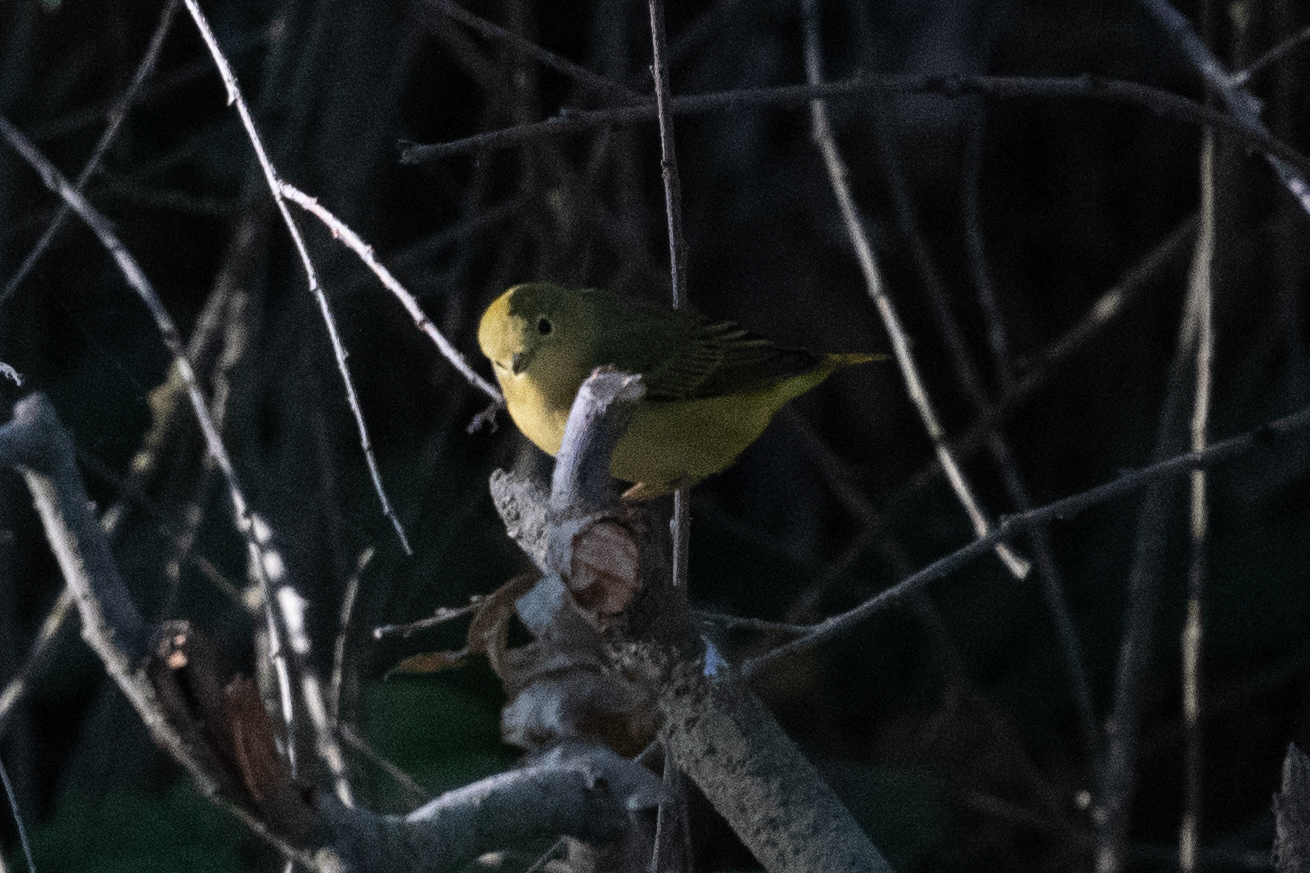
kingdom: Animalia
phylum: Chordata
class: Aves
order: Passeriformes
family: Parulidae
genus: Setophaga
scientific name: Setophaga petechia
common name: Yellow warbler
